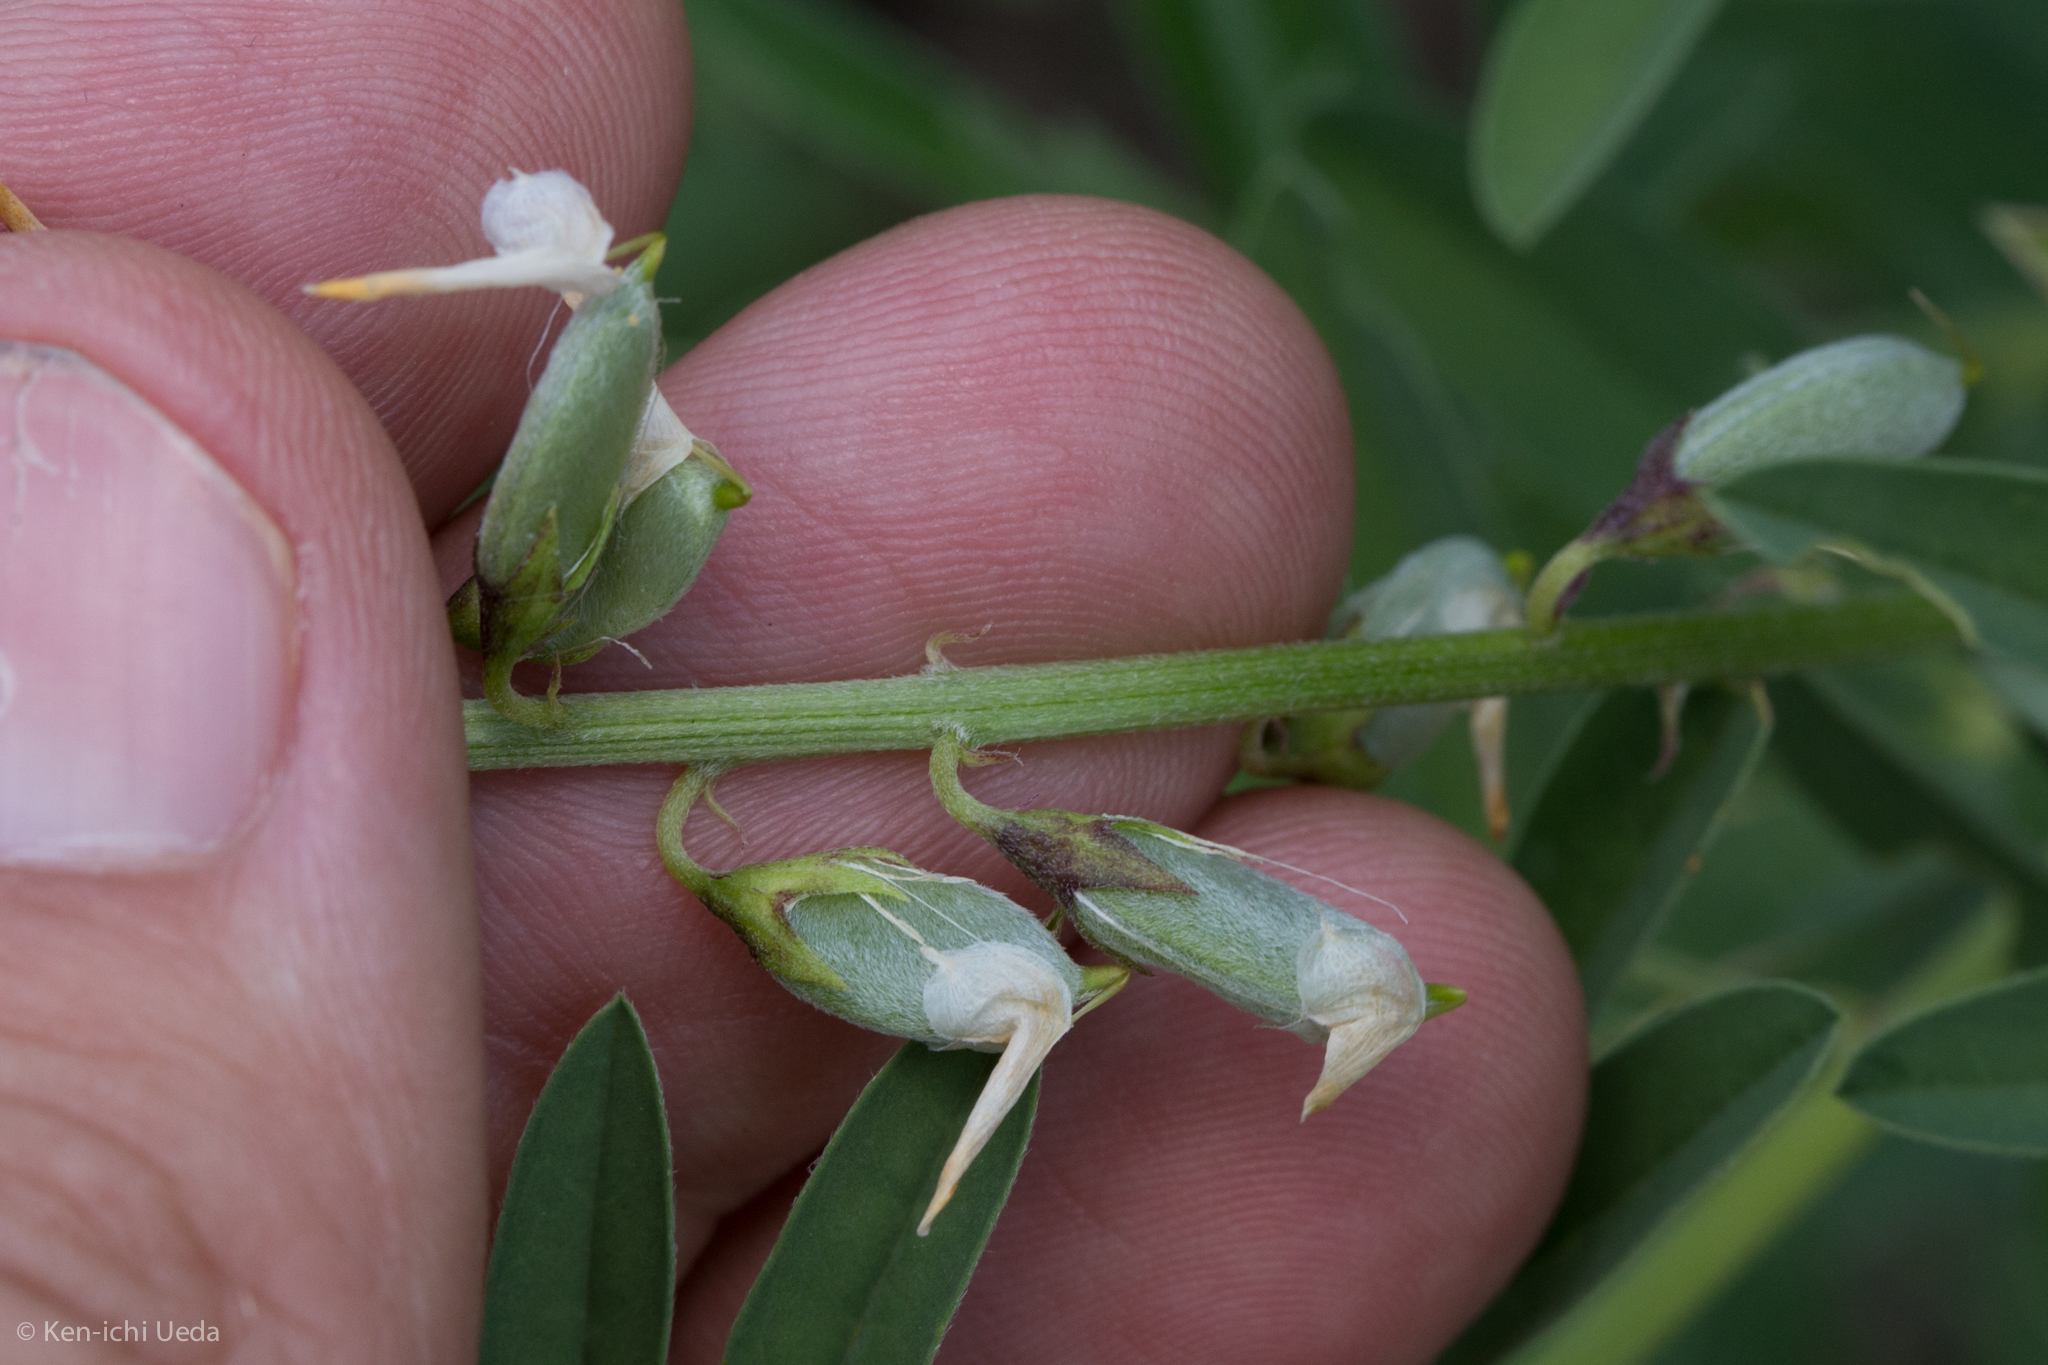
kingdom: Plantae
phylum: Tracheophyta
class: Magnoliopsida
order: Fabales
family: Fabaceae
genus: Crotalaria
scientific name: Crotalaria pumila
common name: Low rattlebox
